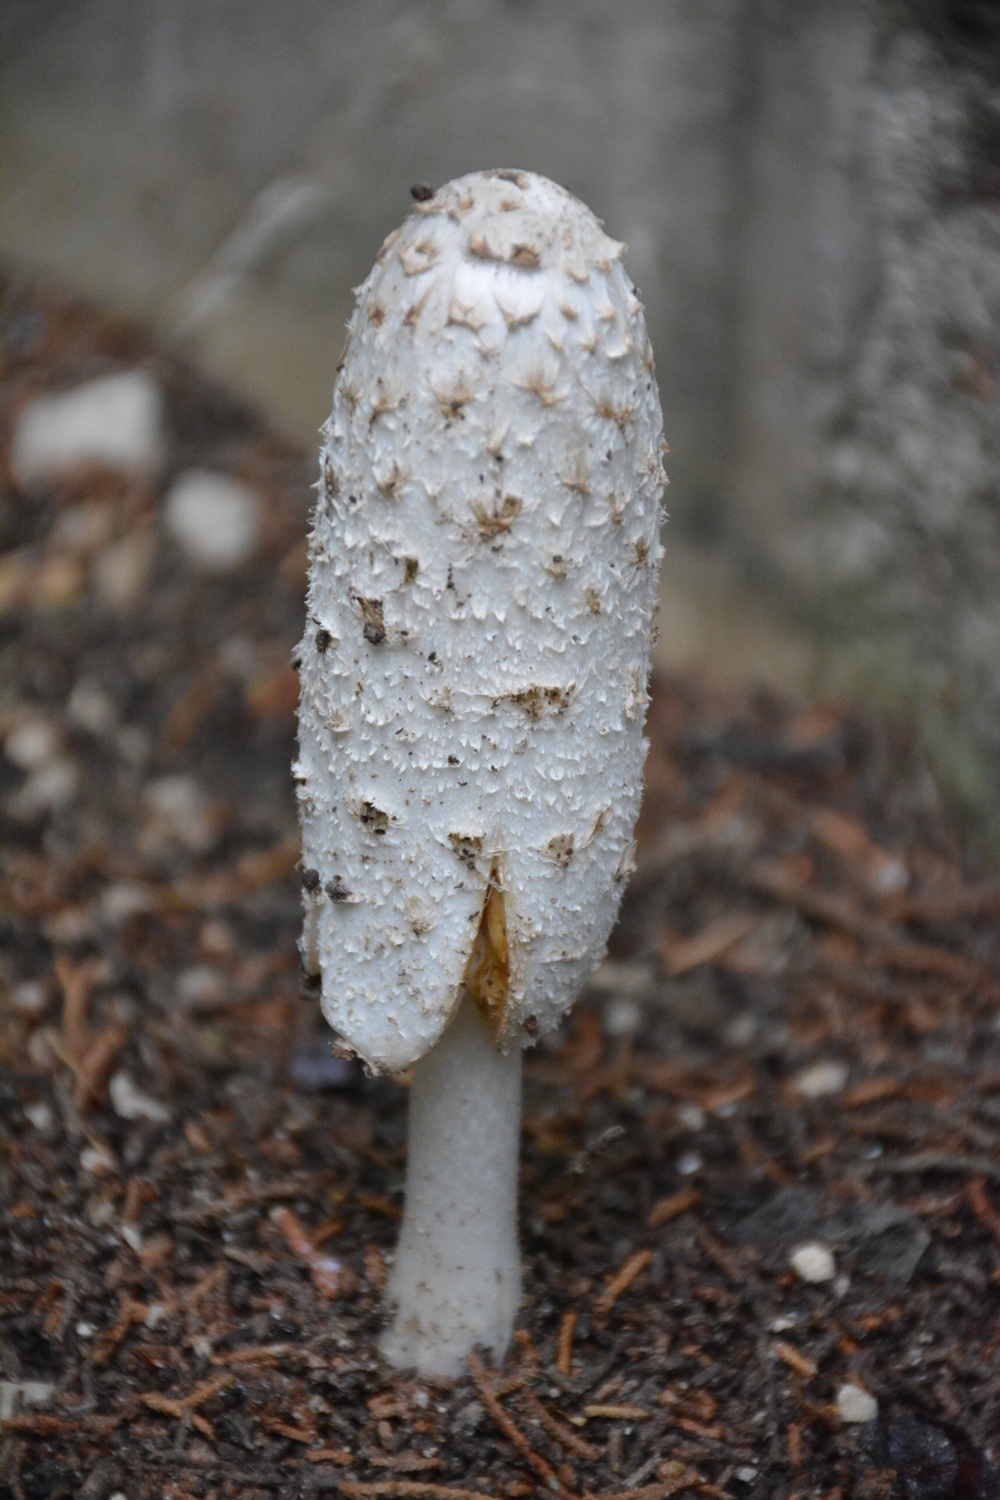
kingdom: Fungi
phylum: Basidiomycota
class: Agaricomycetes
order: Agaricales
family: Agaricaceae
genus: Coprinus
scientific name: Coprinus comatus
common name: Lawyer's wig
